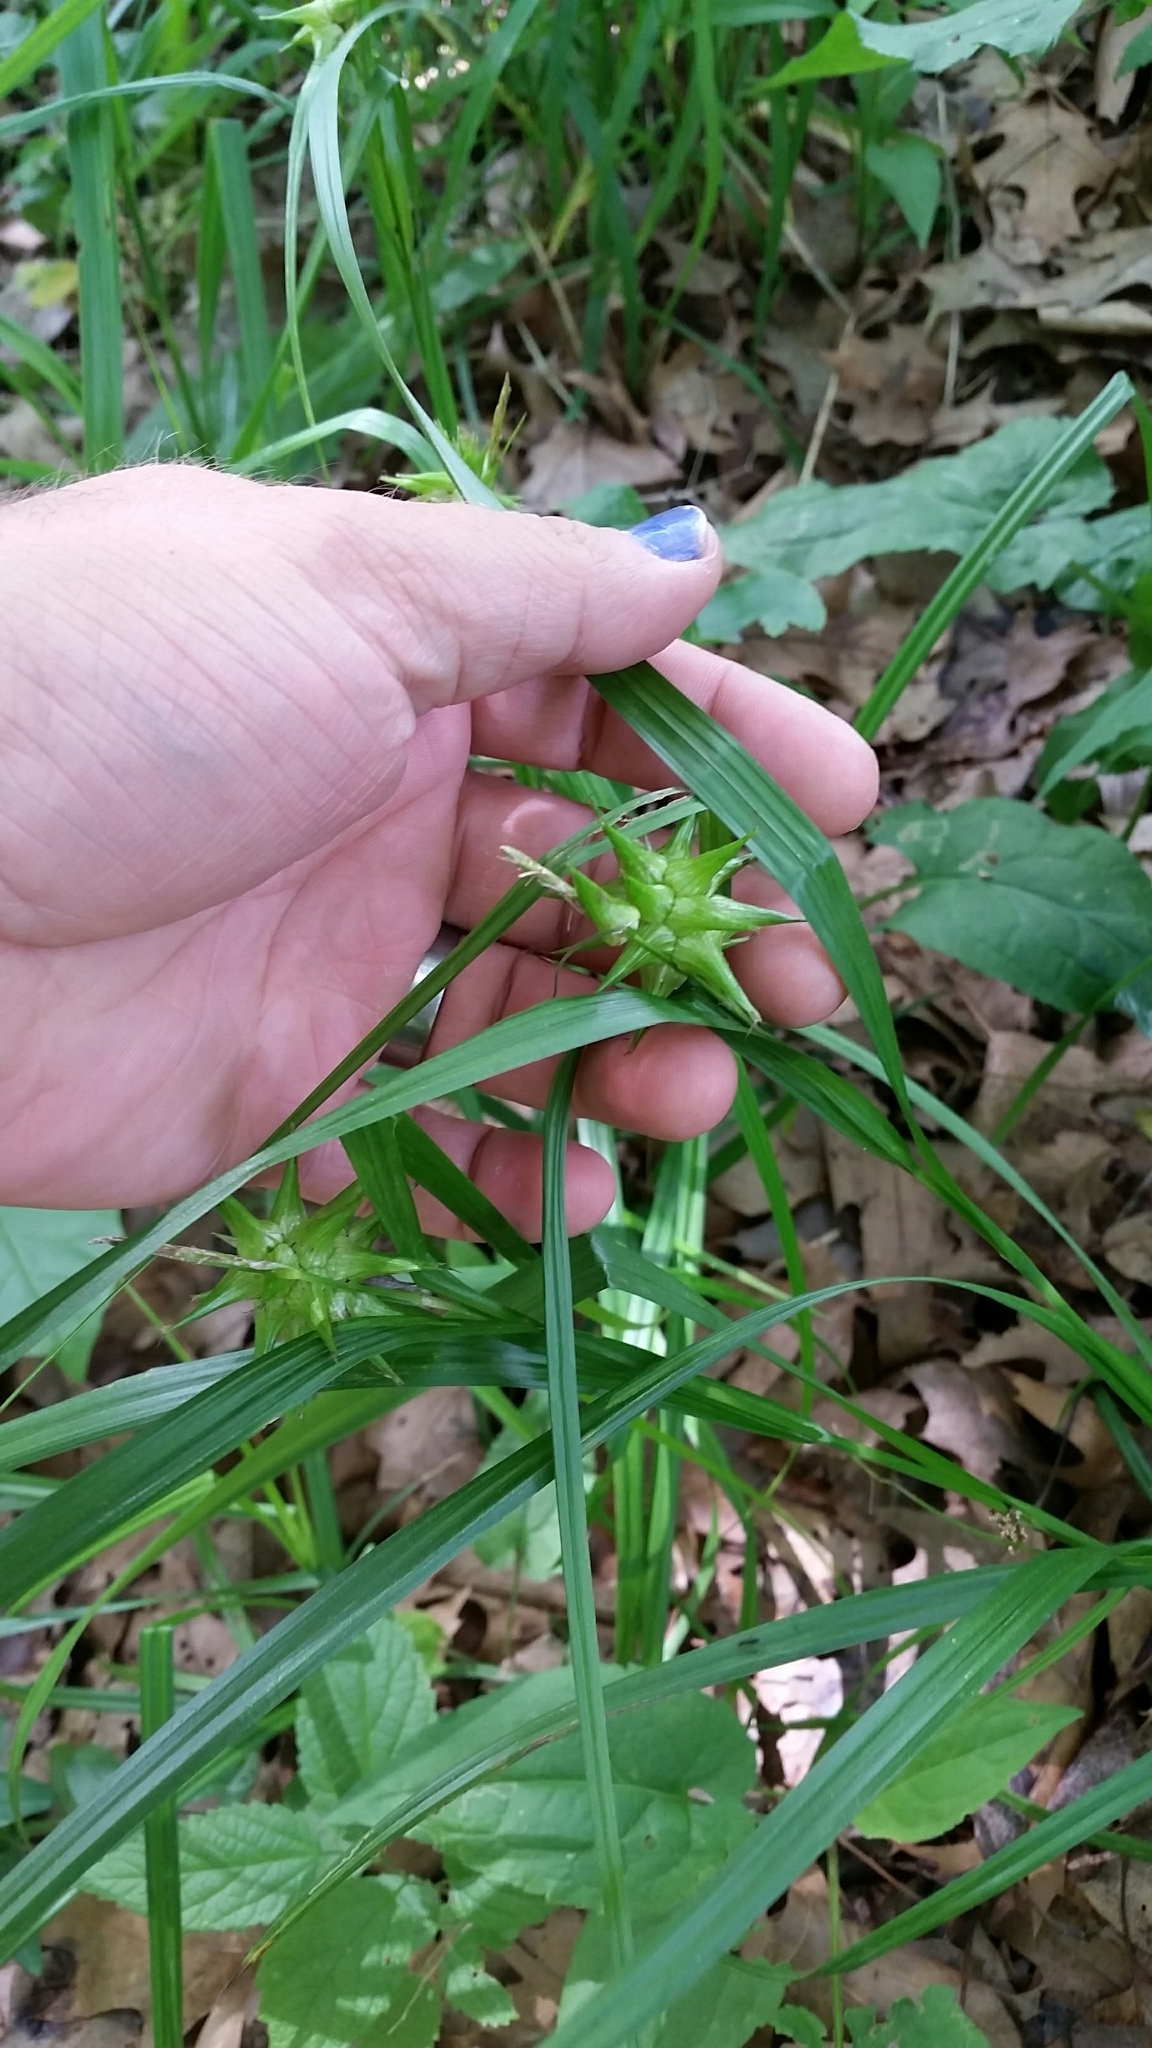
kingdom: Plantae
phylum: Tracheophyta
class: Liliopsida
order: Poales
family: Cyperaceae
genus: Carex
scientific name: Carex grayi
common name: Asa gray's sedge
